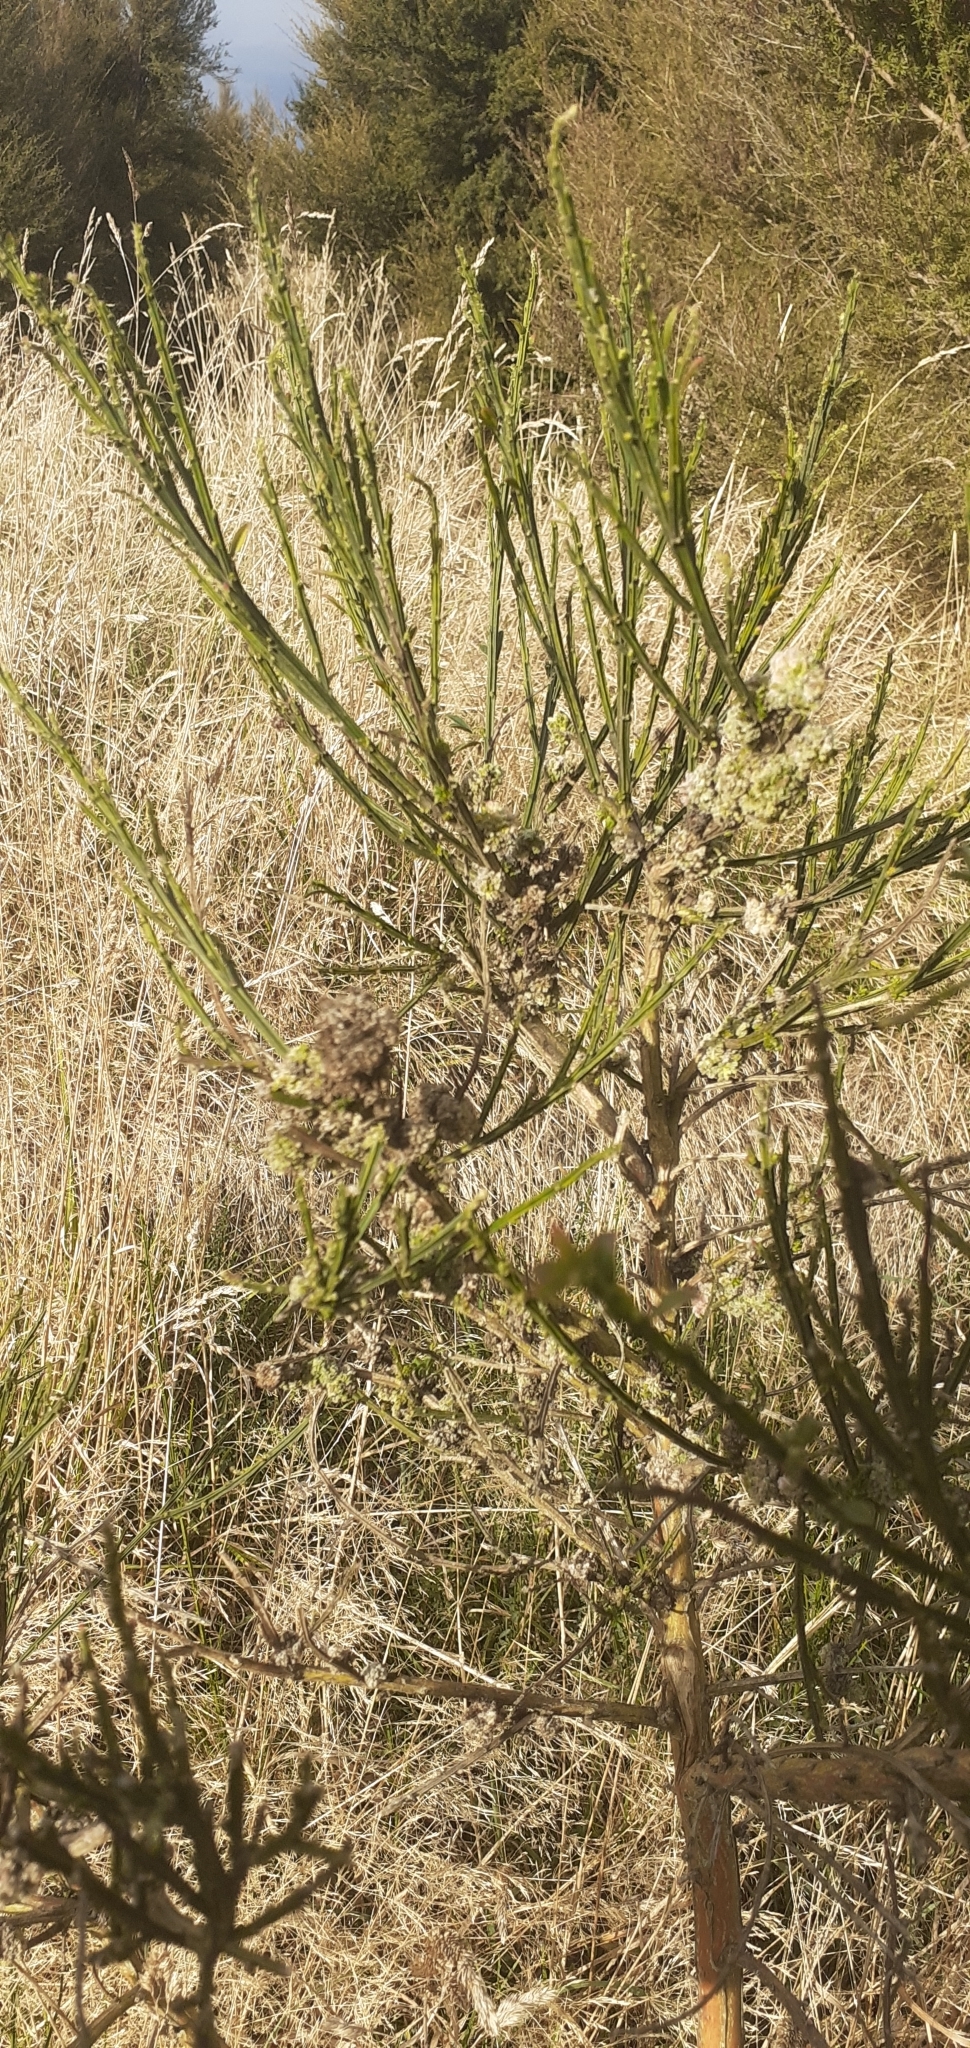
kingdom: Animalia
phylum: Arthropoda
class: Arachnida
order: Trombidiformes
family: Eriophyidae
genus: Aceria
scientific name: Aceria genistae
